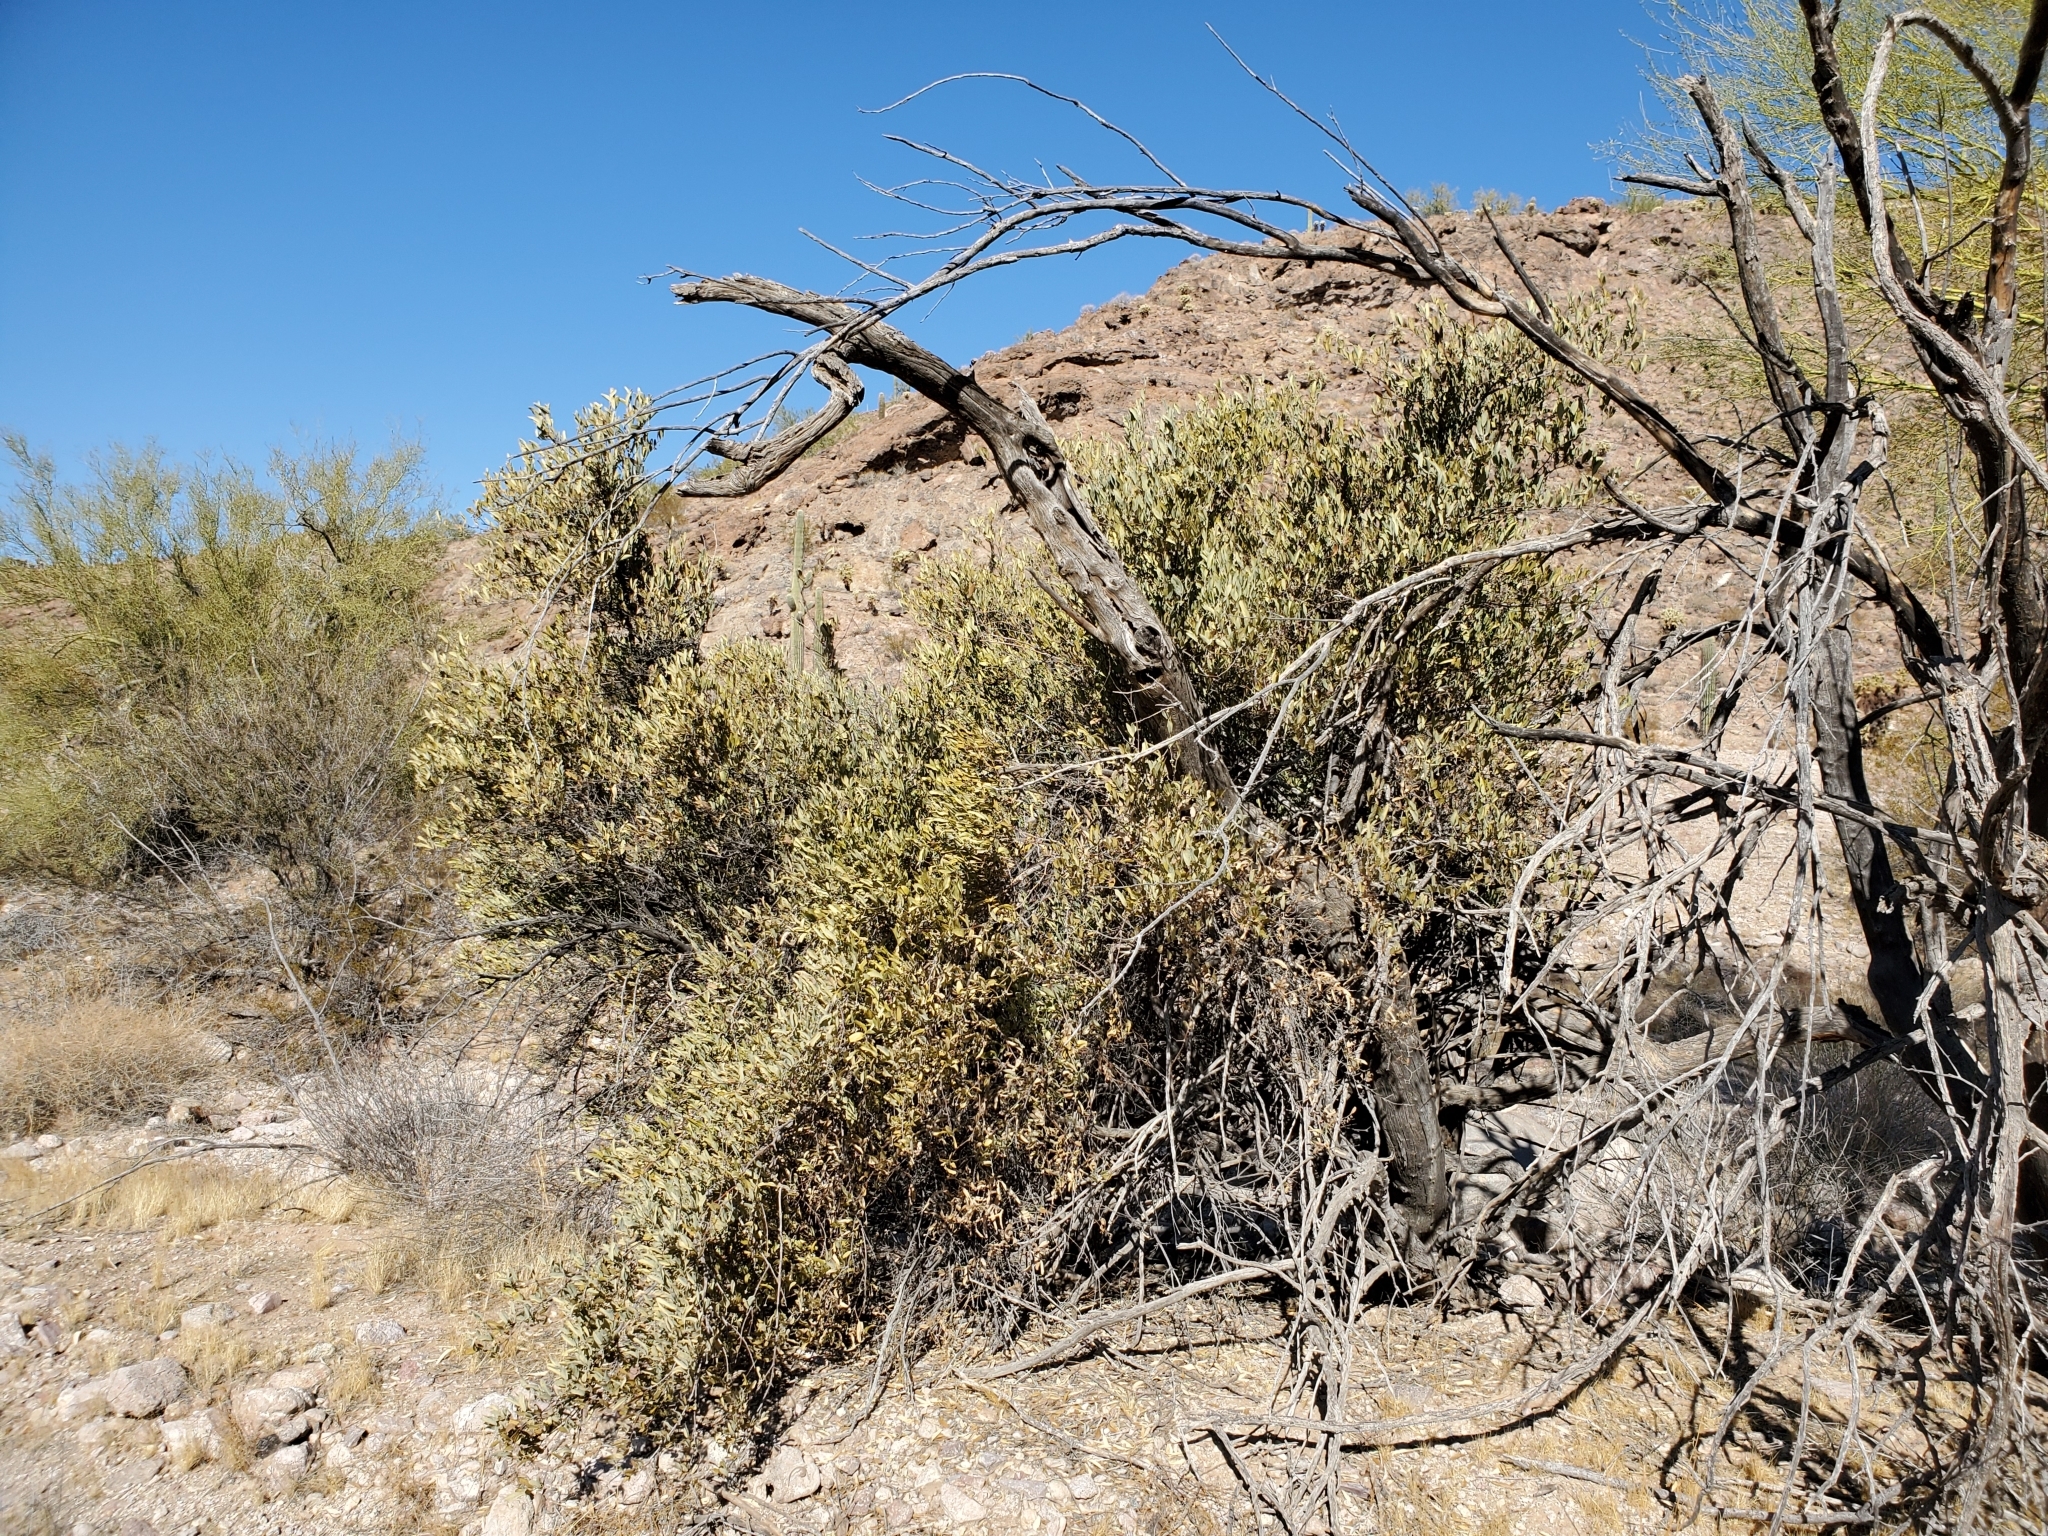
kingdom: Plantae
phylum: Tracheophyta
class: Magnoliopsida
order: Caryophyllales
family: Simmondsiaceae
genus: Simmondsia
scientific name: Simmondsia chinensis
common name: Jojoba
